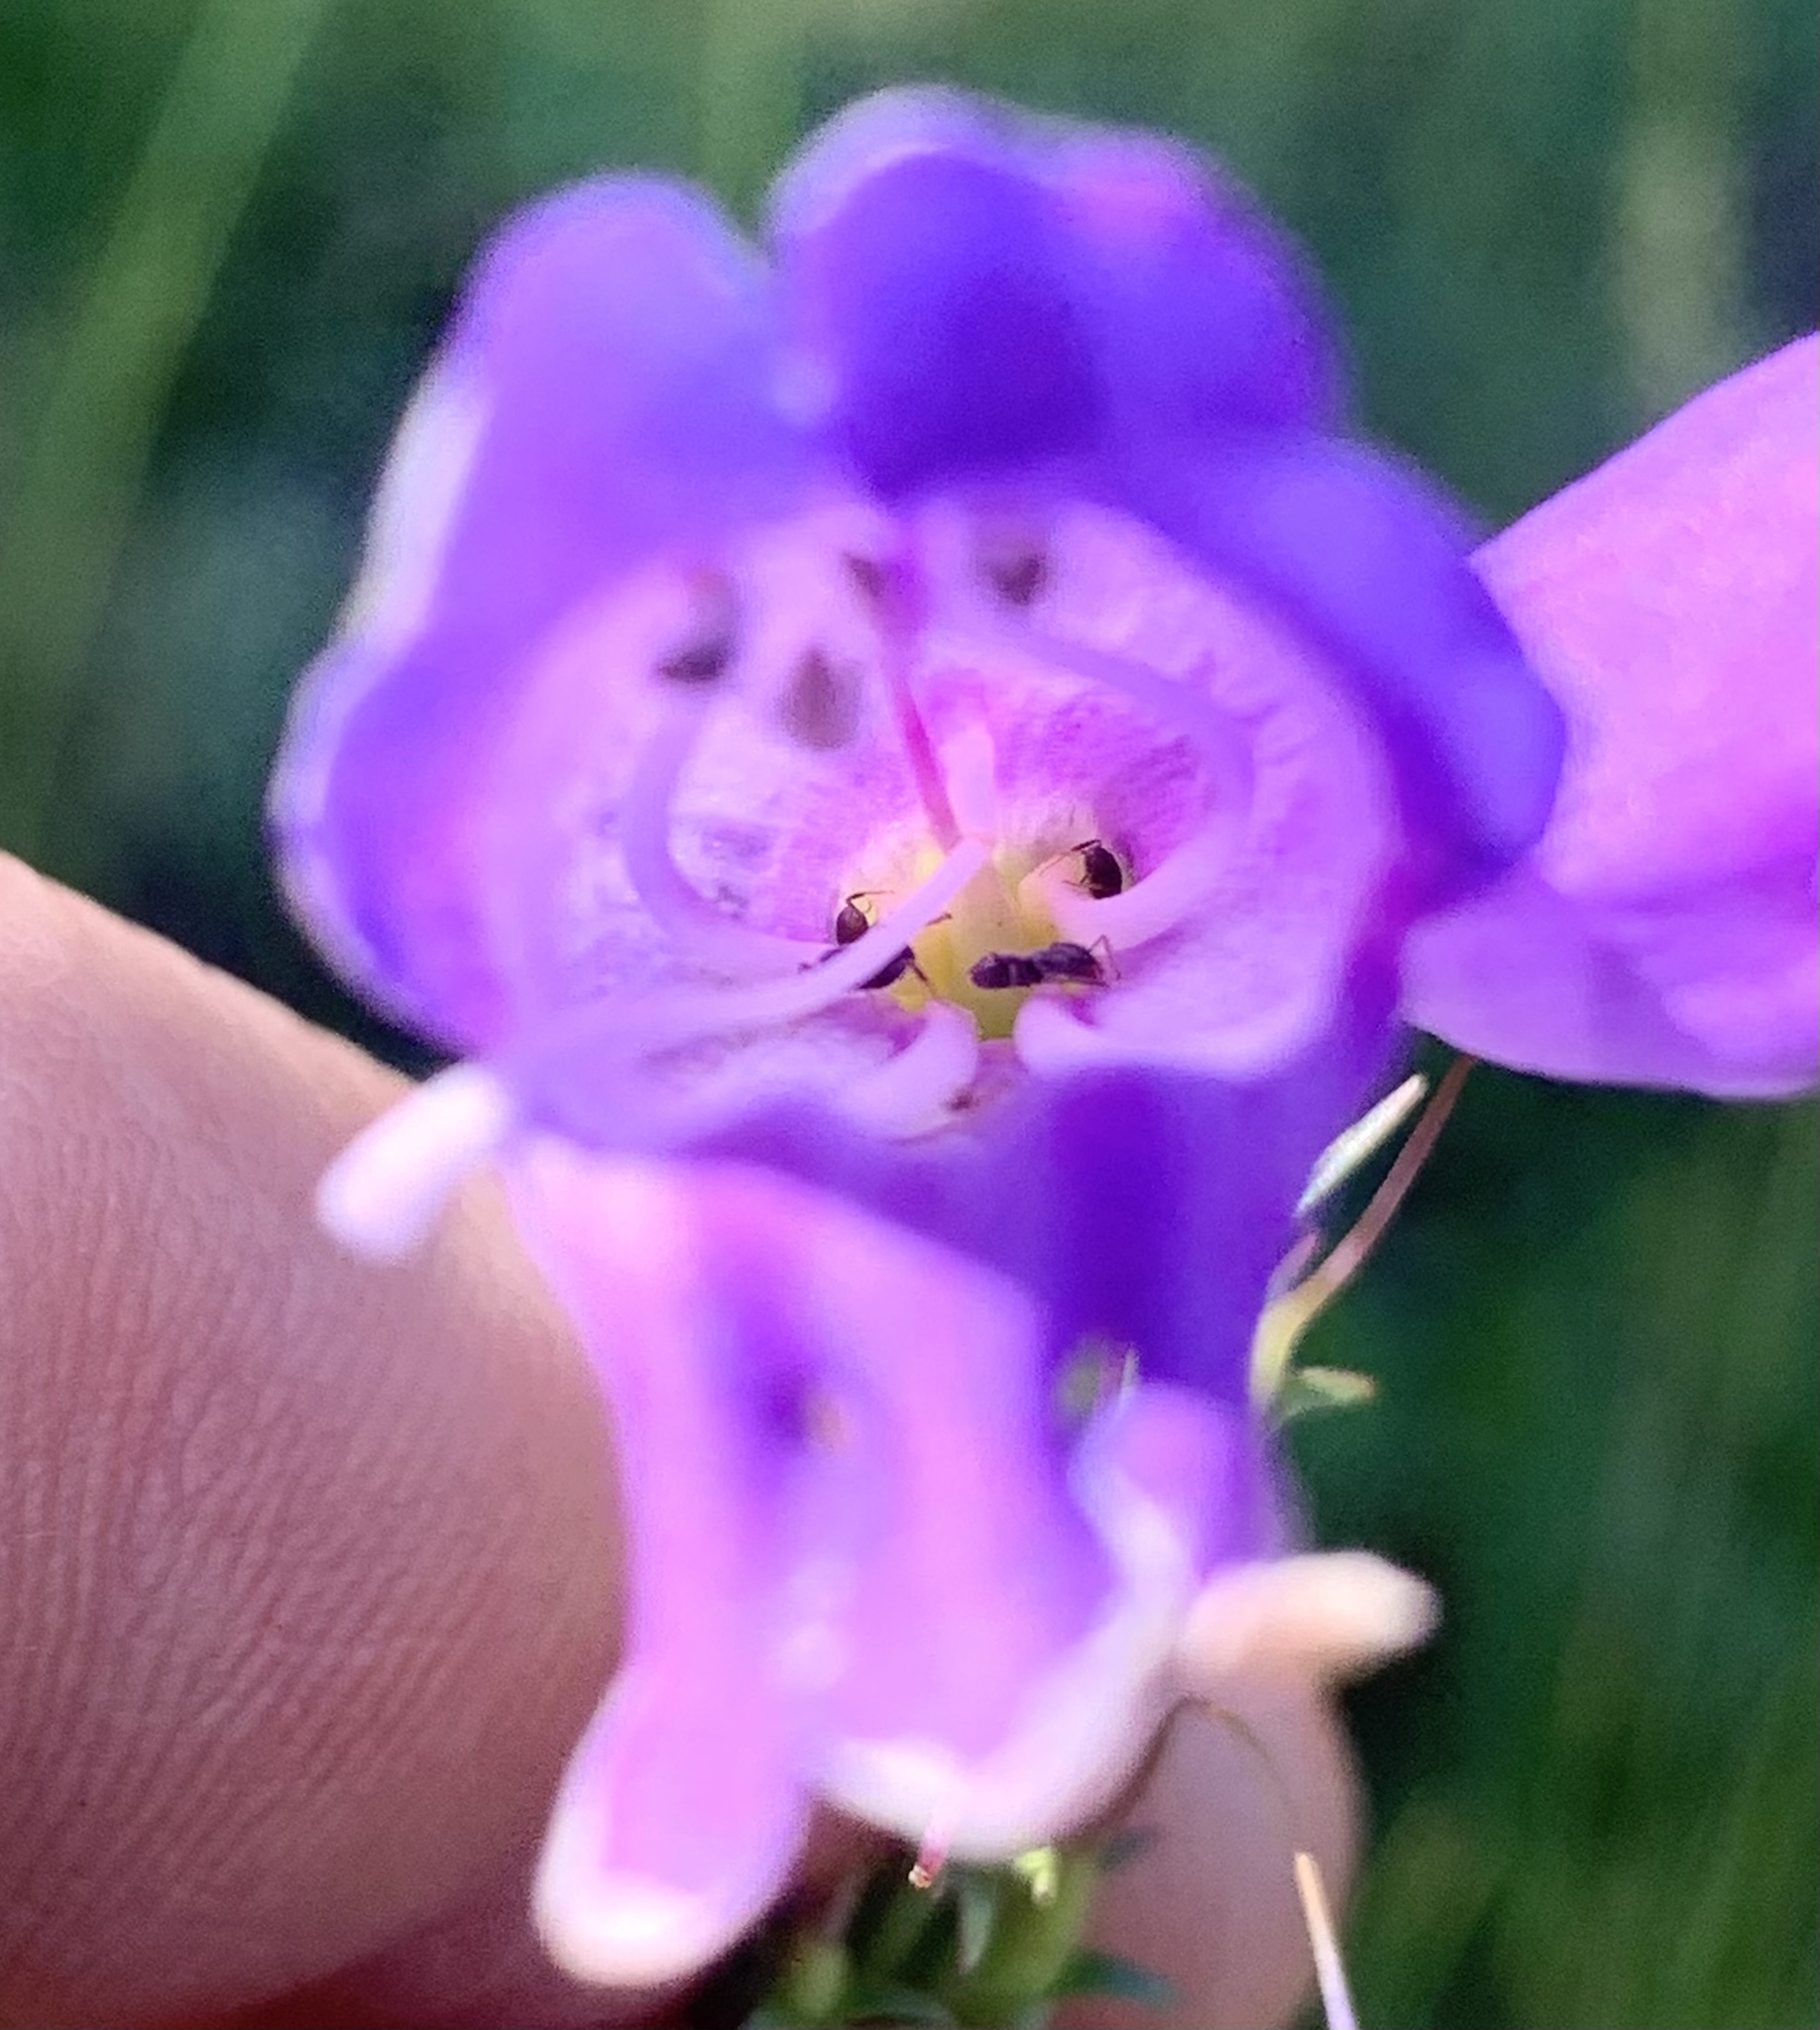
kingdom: Plantae
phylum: Tracheophyta
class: Magnoliopsida
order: Lamiales
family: Plantaginaceae
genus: Penstemon
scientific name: Penstemon strictus
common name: Rocky mountain penstemon
